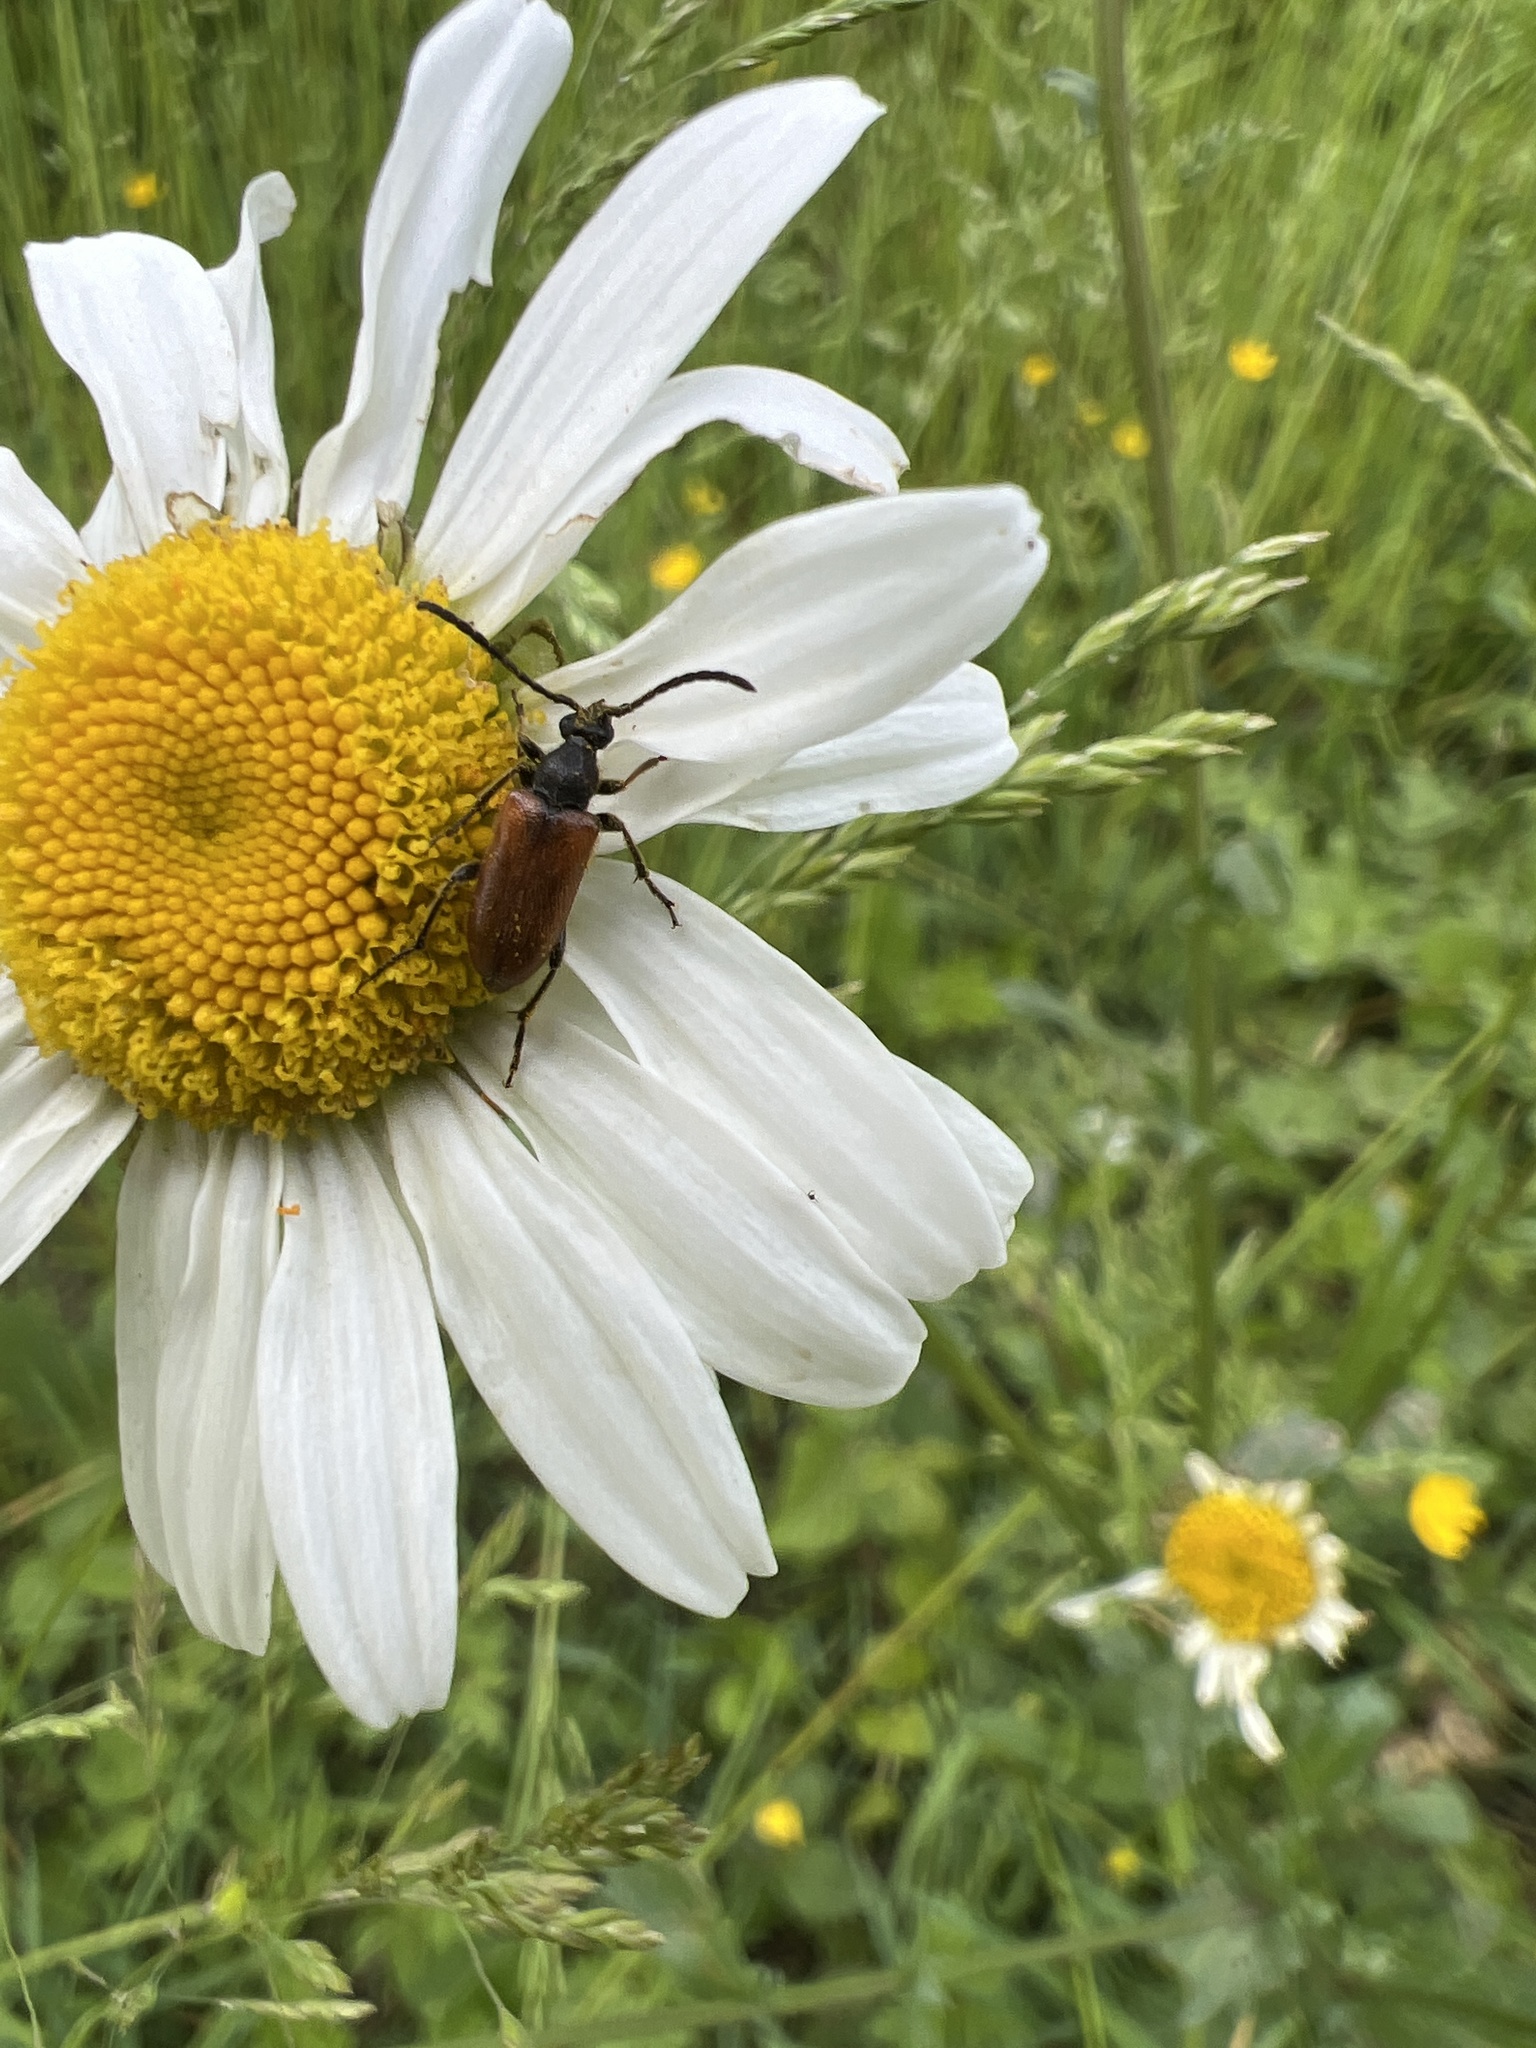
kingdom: Animalia
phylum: Arthropoda
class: Insecta
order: Coleoptera
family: Cerambycidae
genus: Pseudovadonia
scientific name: Pseudovadonia livida
